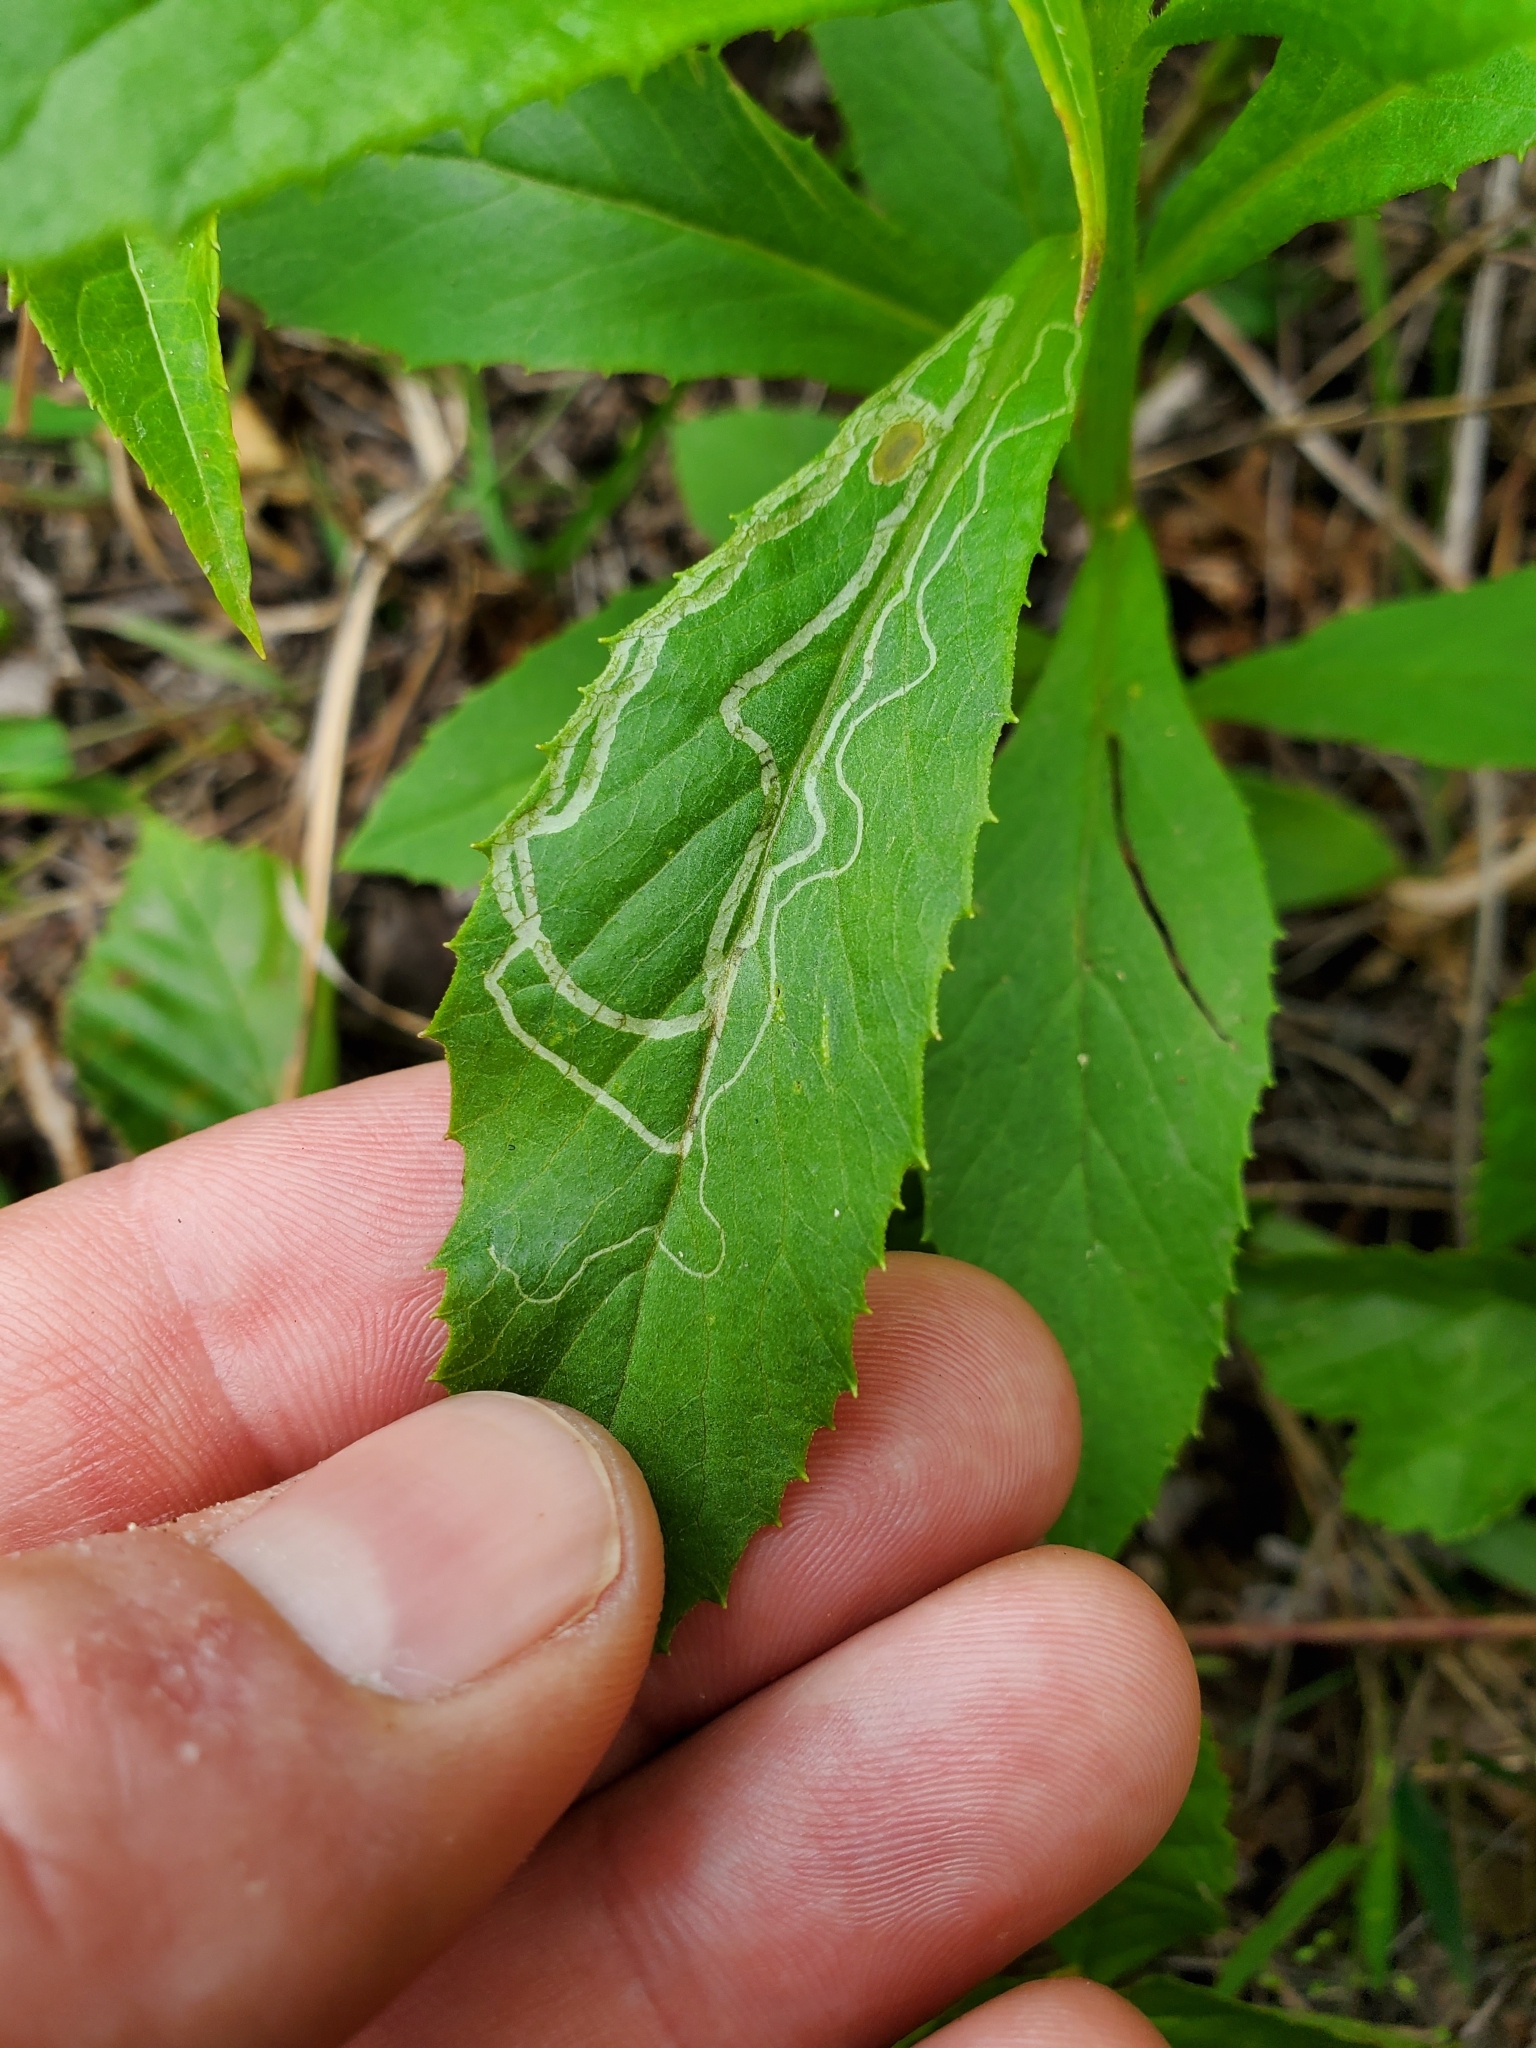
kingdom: Animalia
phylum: Arthropoda
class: Insecta
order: Lepidoptera
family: Gracillariidae
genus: Phyllocnistis
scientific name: Phyllocnistis insignis
